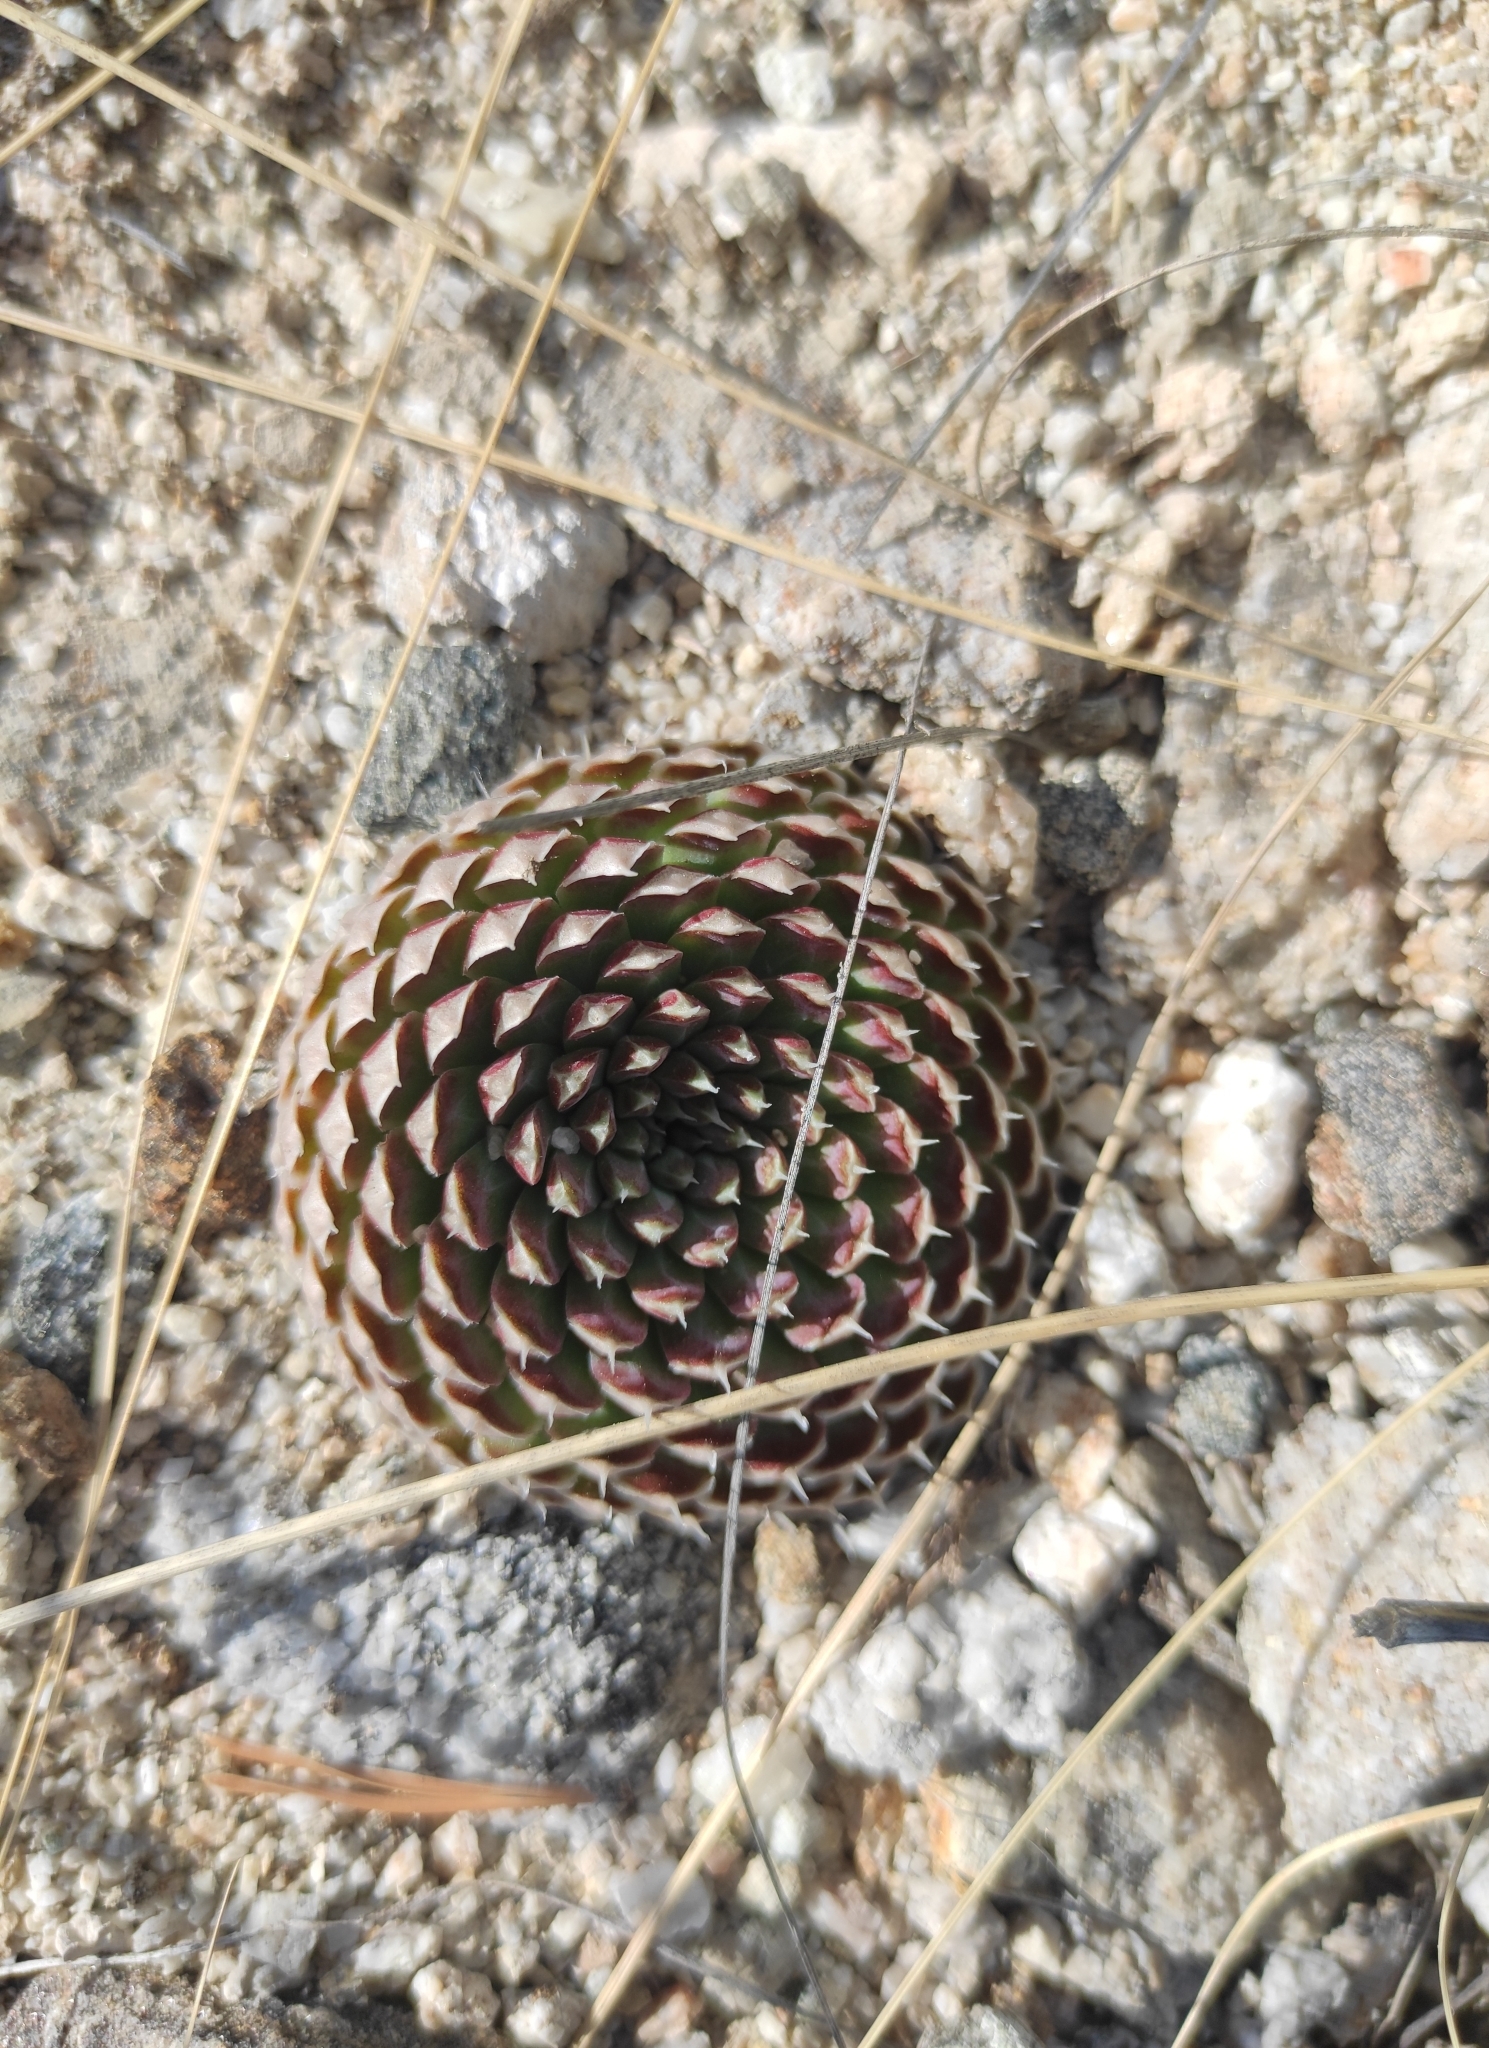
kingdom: Plantae
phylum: Tracheophyta
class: Magnoliopsida
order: Saxifragales
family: Crassulaceae
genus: Orostachys
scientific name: Orostachys spinosa
